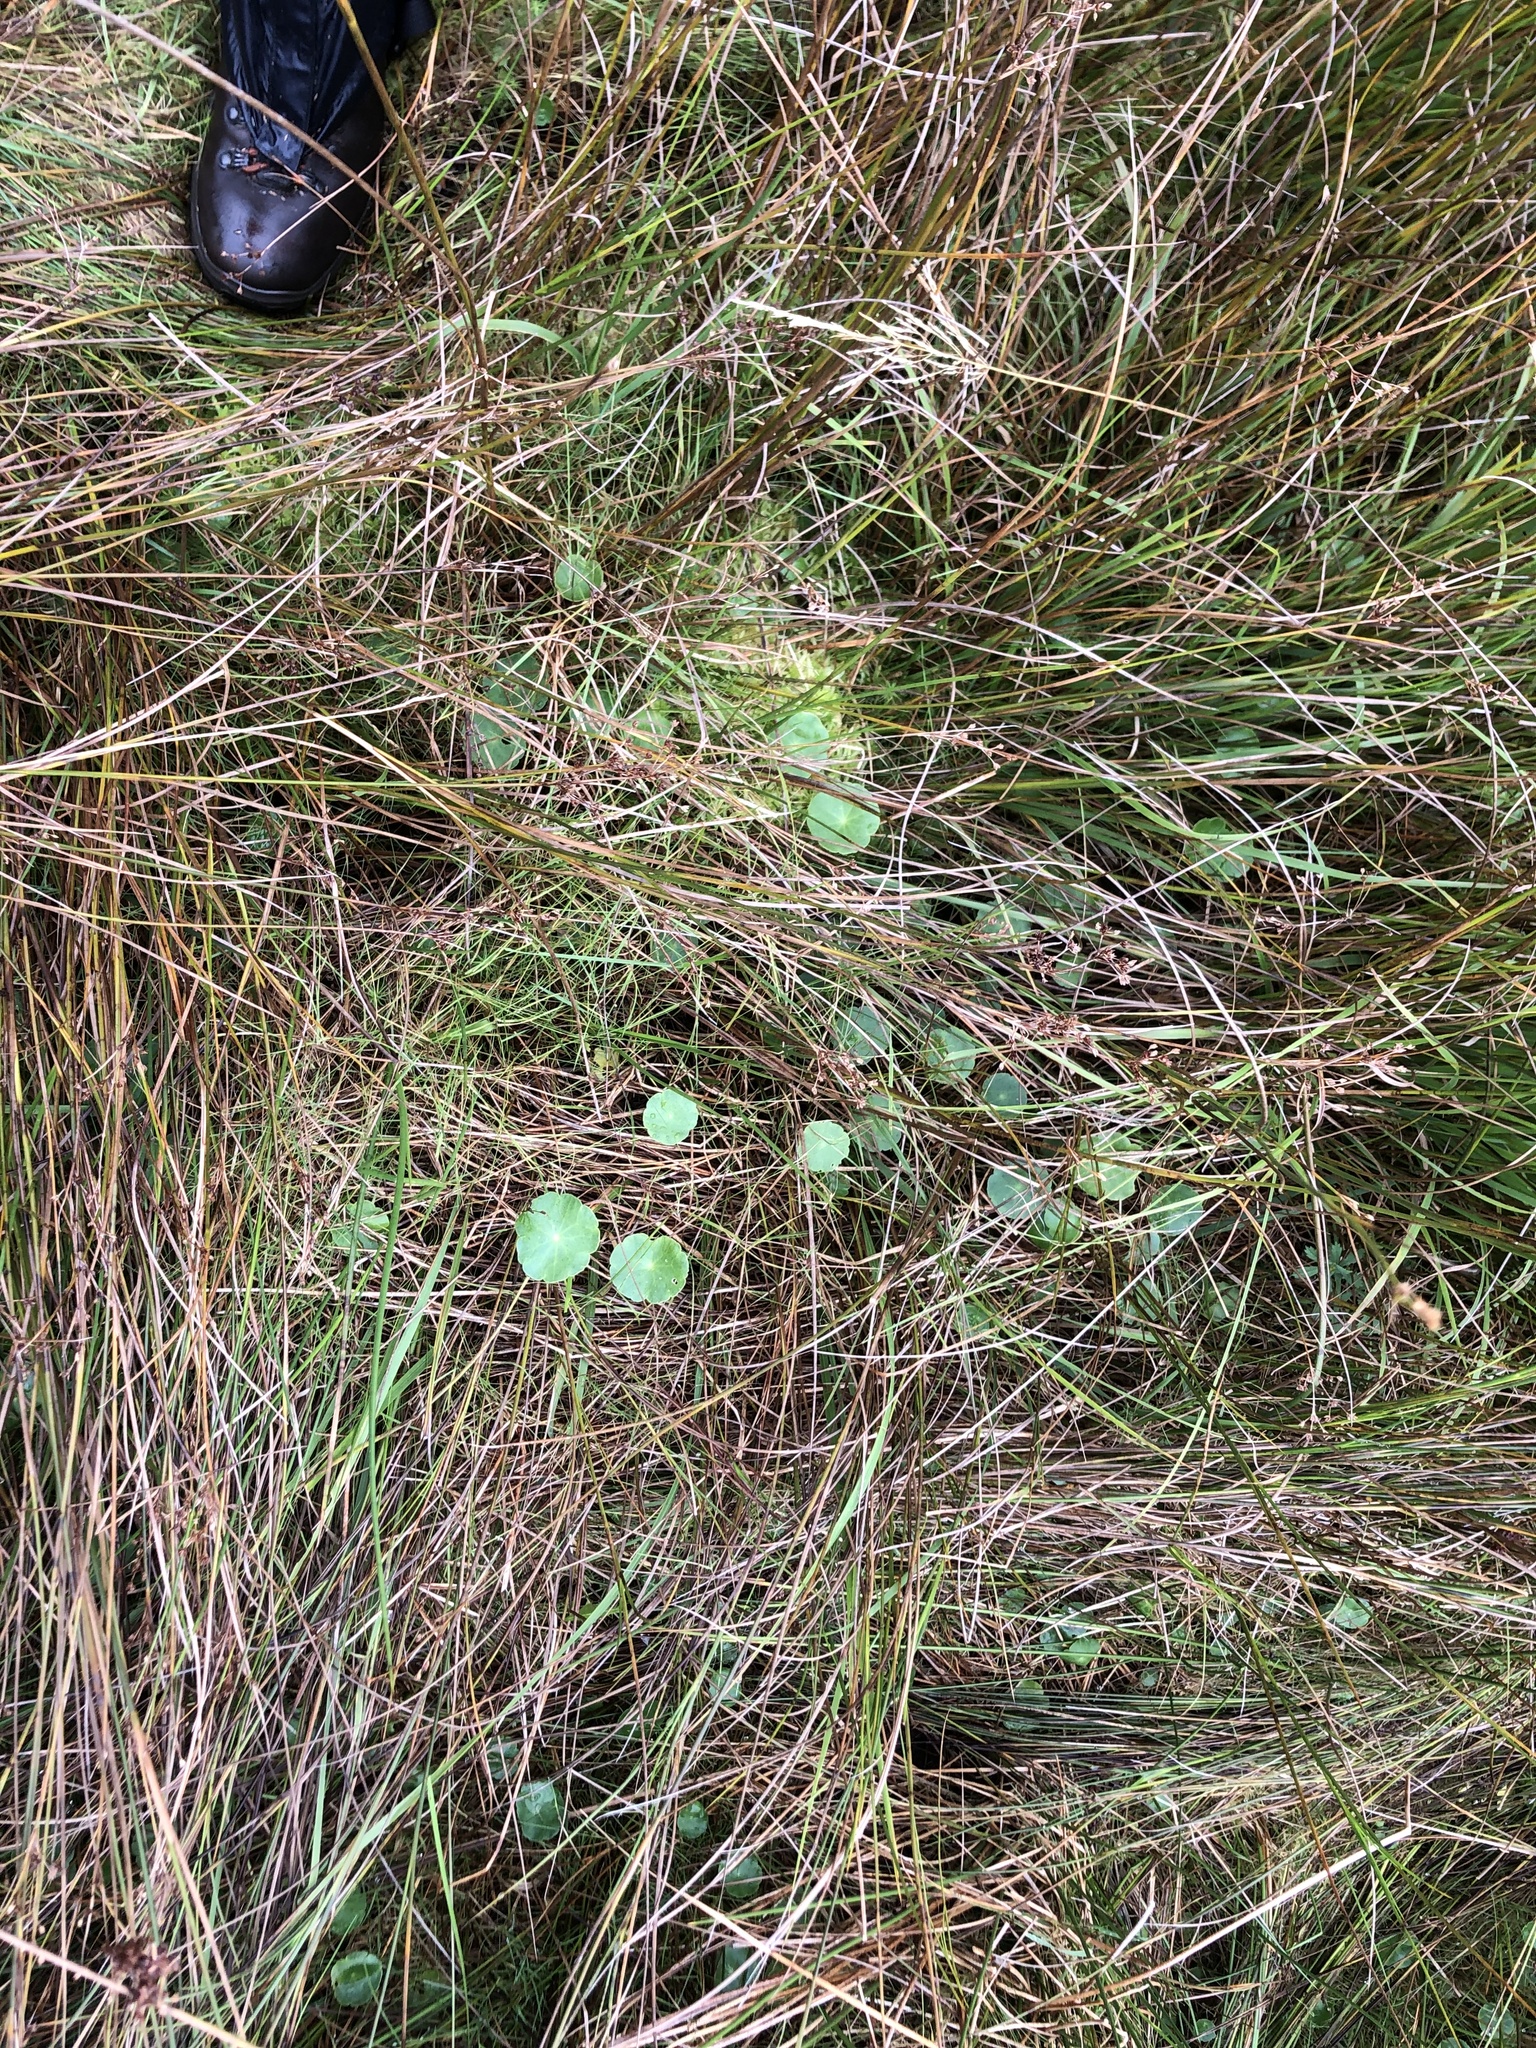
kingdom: Plantae
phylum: Tracheophyta
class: Magnoliopsida
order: Apiales
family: Araliaceae
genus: Hydrocotyle
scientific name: Hydrocotyle vulgaris
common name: Marsh pennywort
